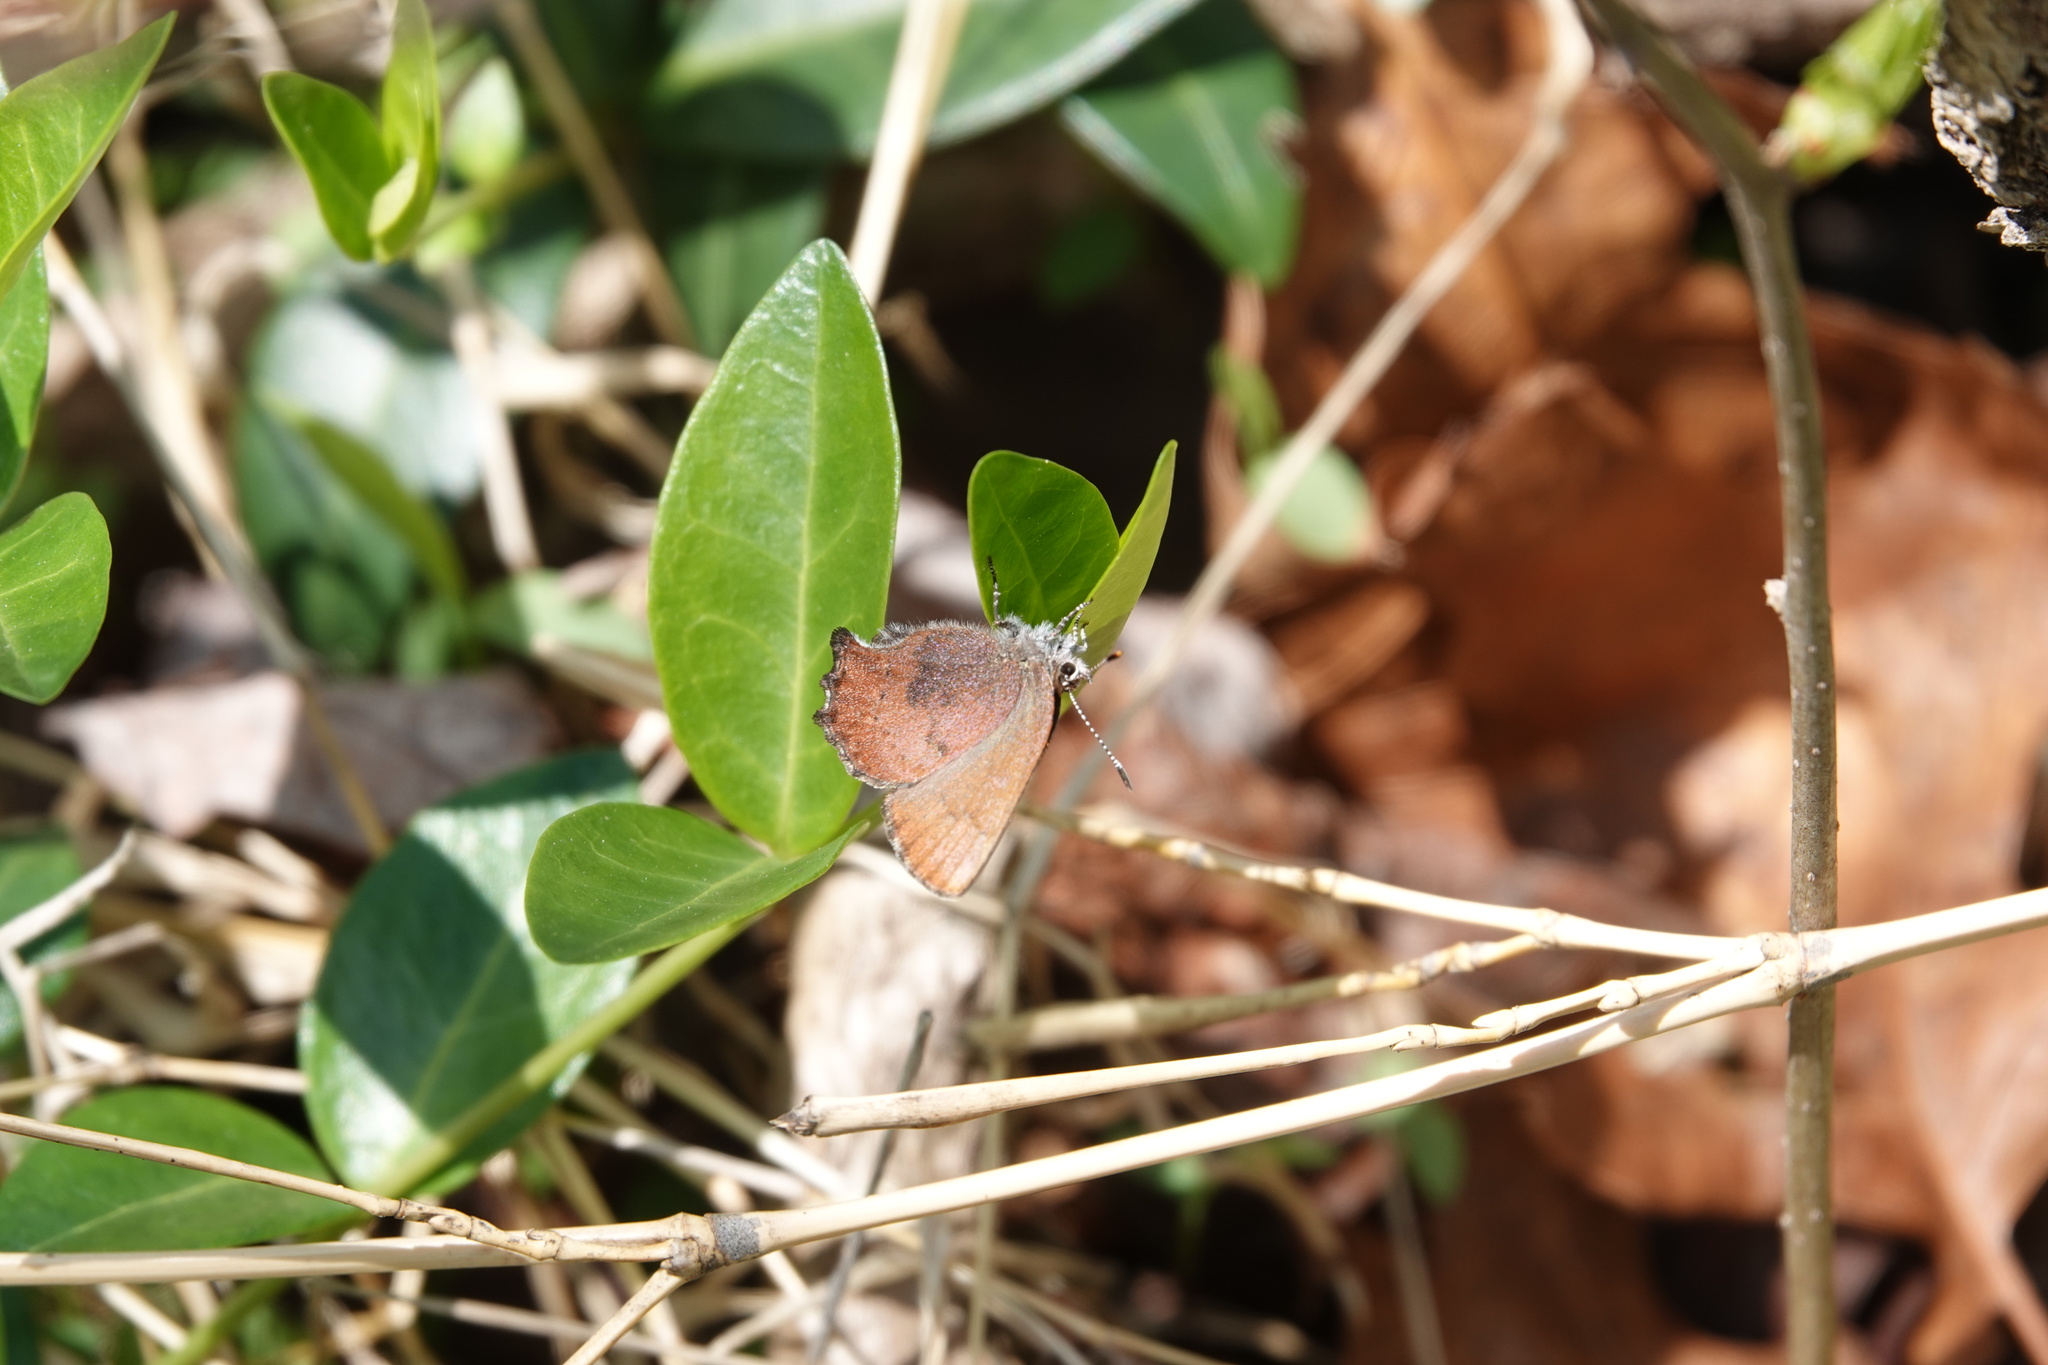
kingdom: Animalia
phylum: Arthropoda
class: Insecta
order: Lepidoptera
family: Lycaenidae
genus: Incisalia
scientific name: Incisalia irioides
